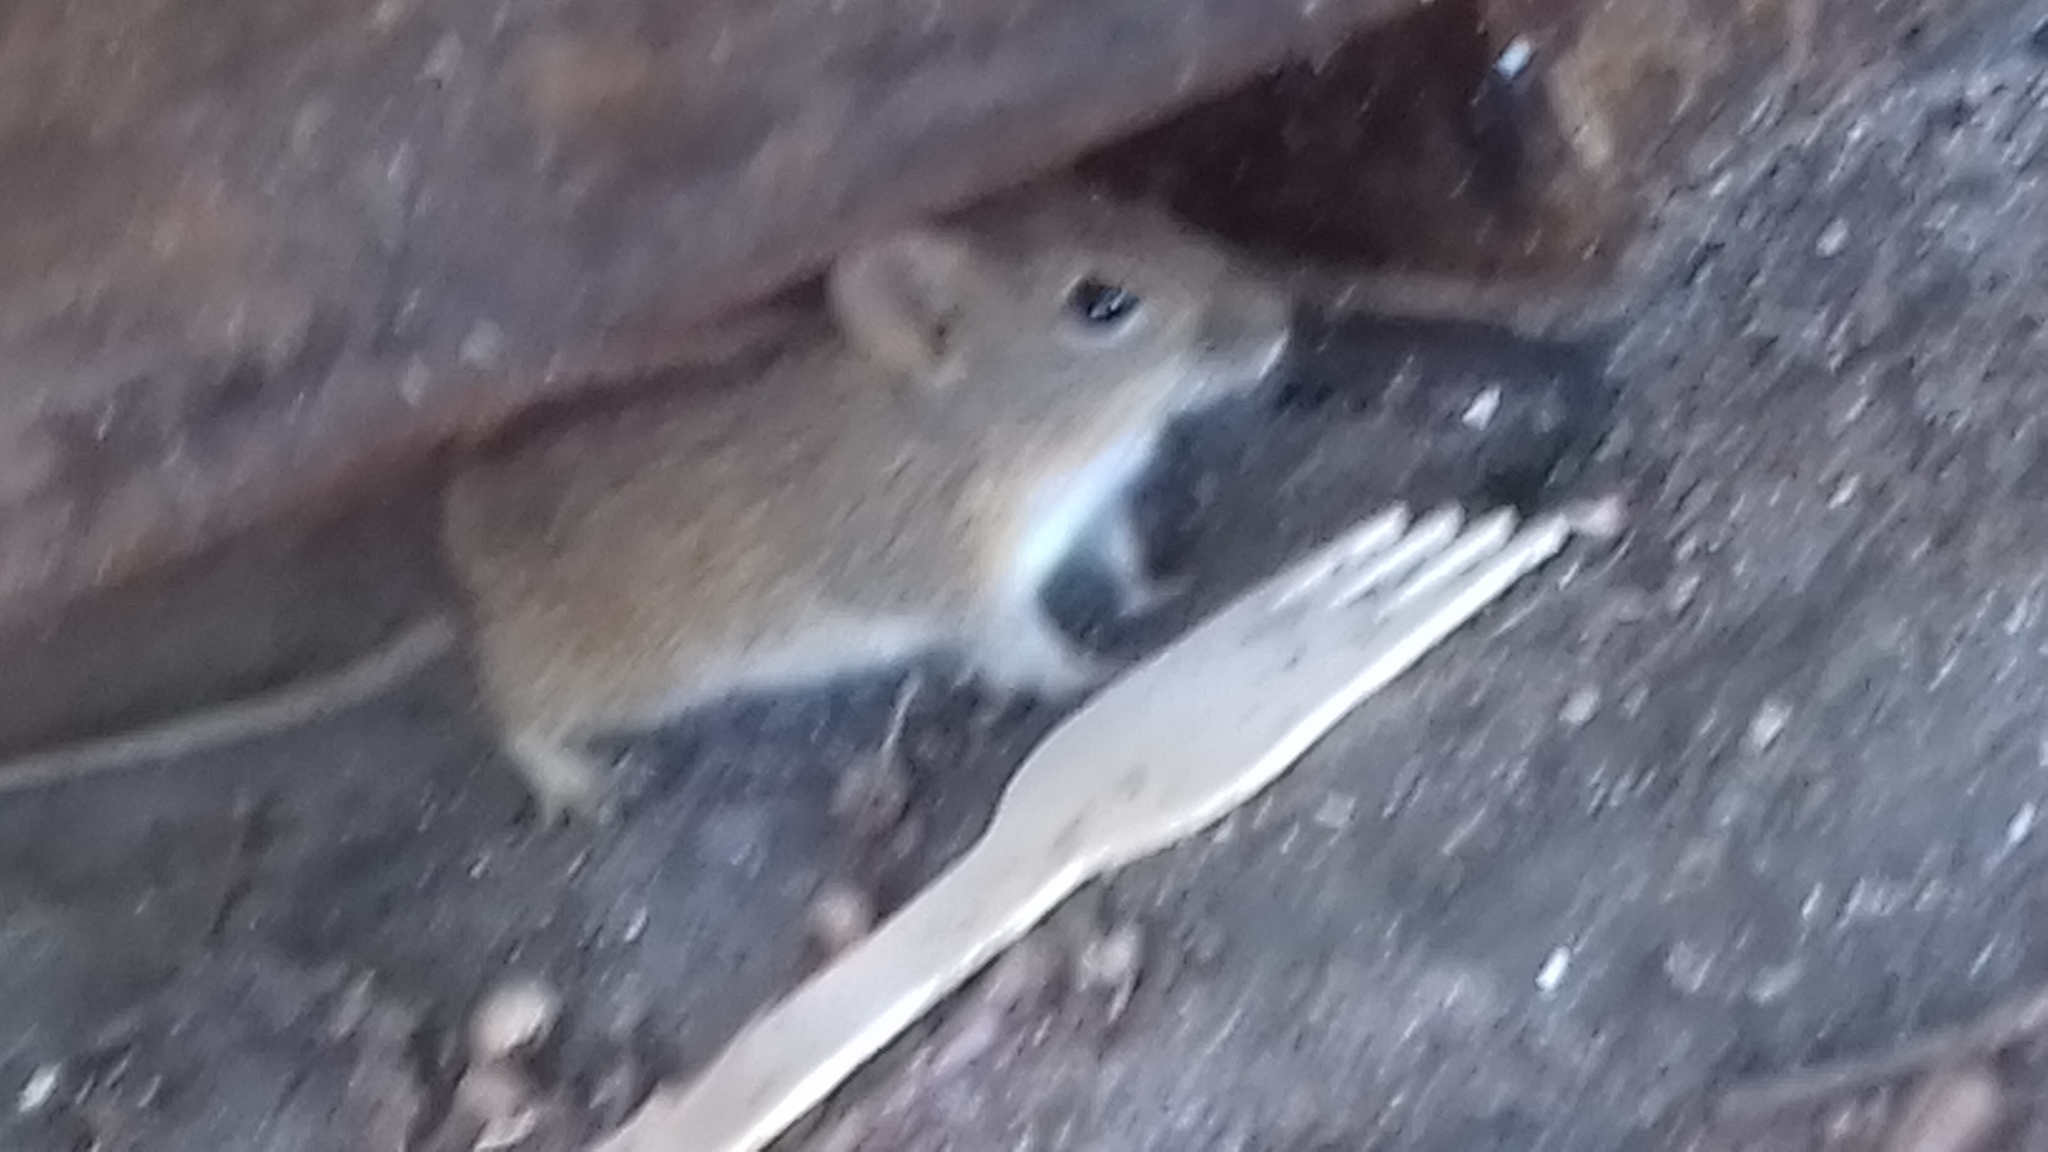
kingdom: Animalia
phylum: Chordata
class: Mammalia
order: Rodentia
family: Muridae
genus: Rhabdomys
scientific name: Rhabdomys pumilio
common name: Xeric four-striped grass rat
